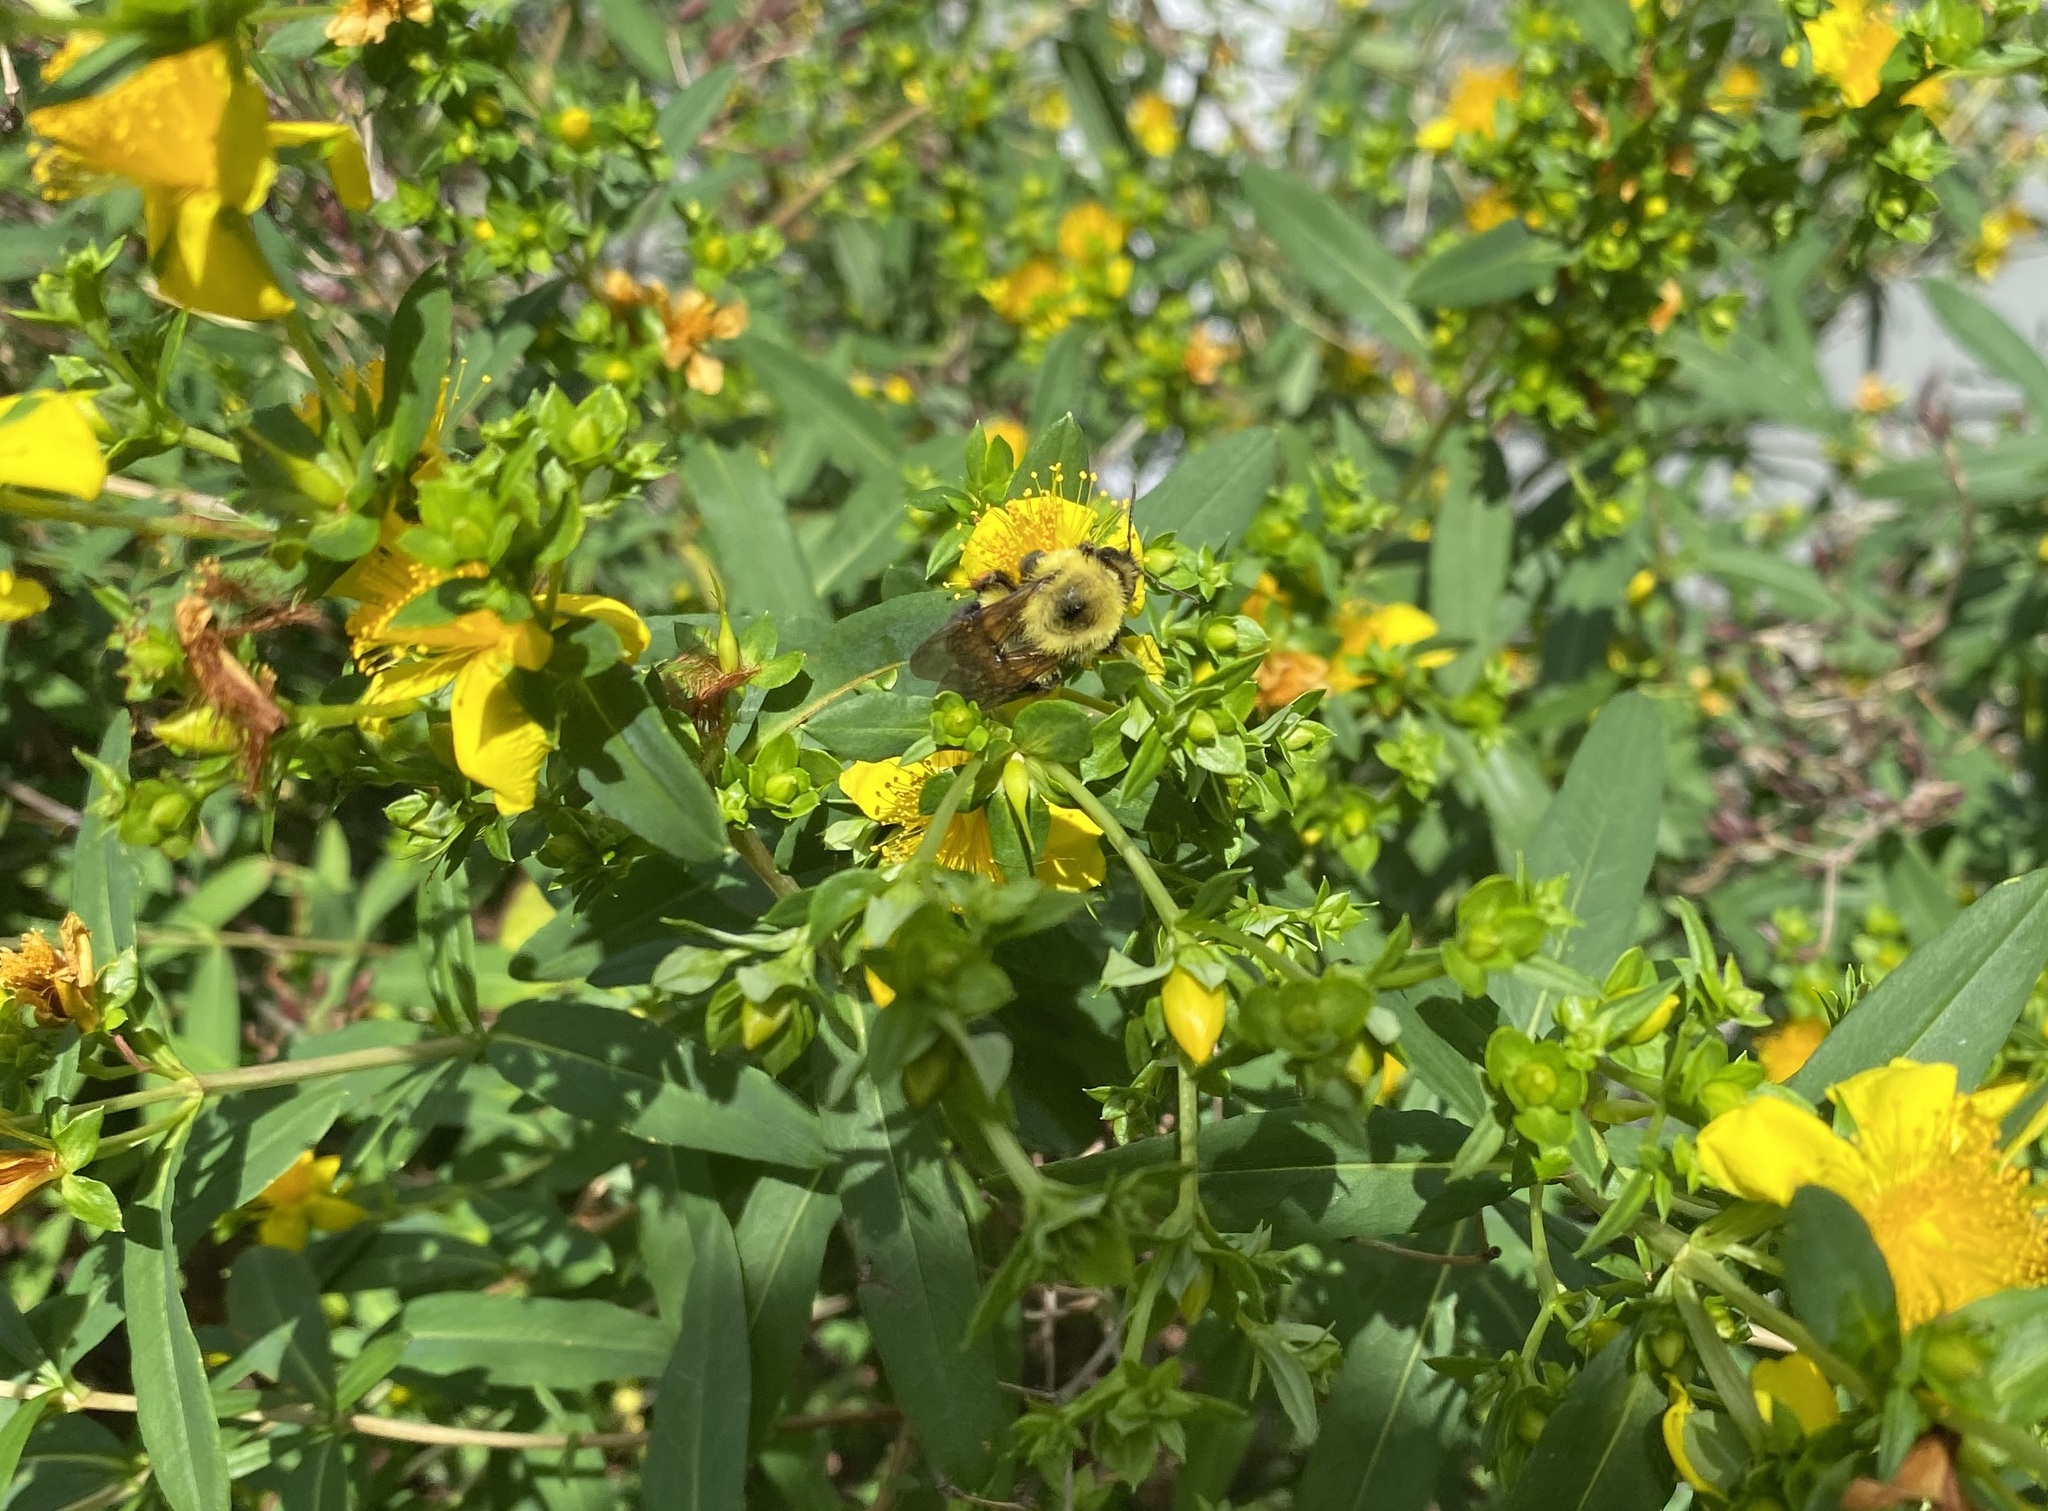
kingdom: Animalia
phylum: Arthropoda
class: Insecta
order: Hymenoptera
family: Apidae
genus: Bombus
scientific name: Bombus bimaculatus
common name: Two-spotted bumble bee
